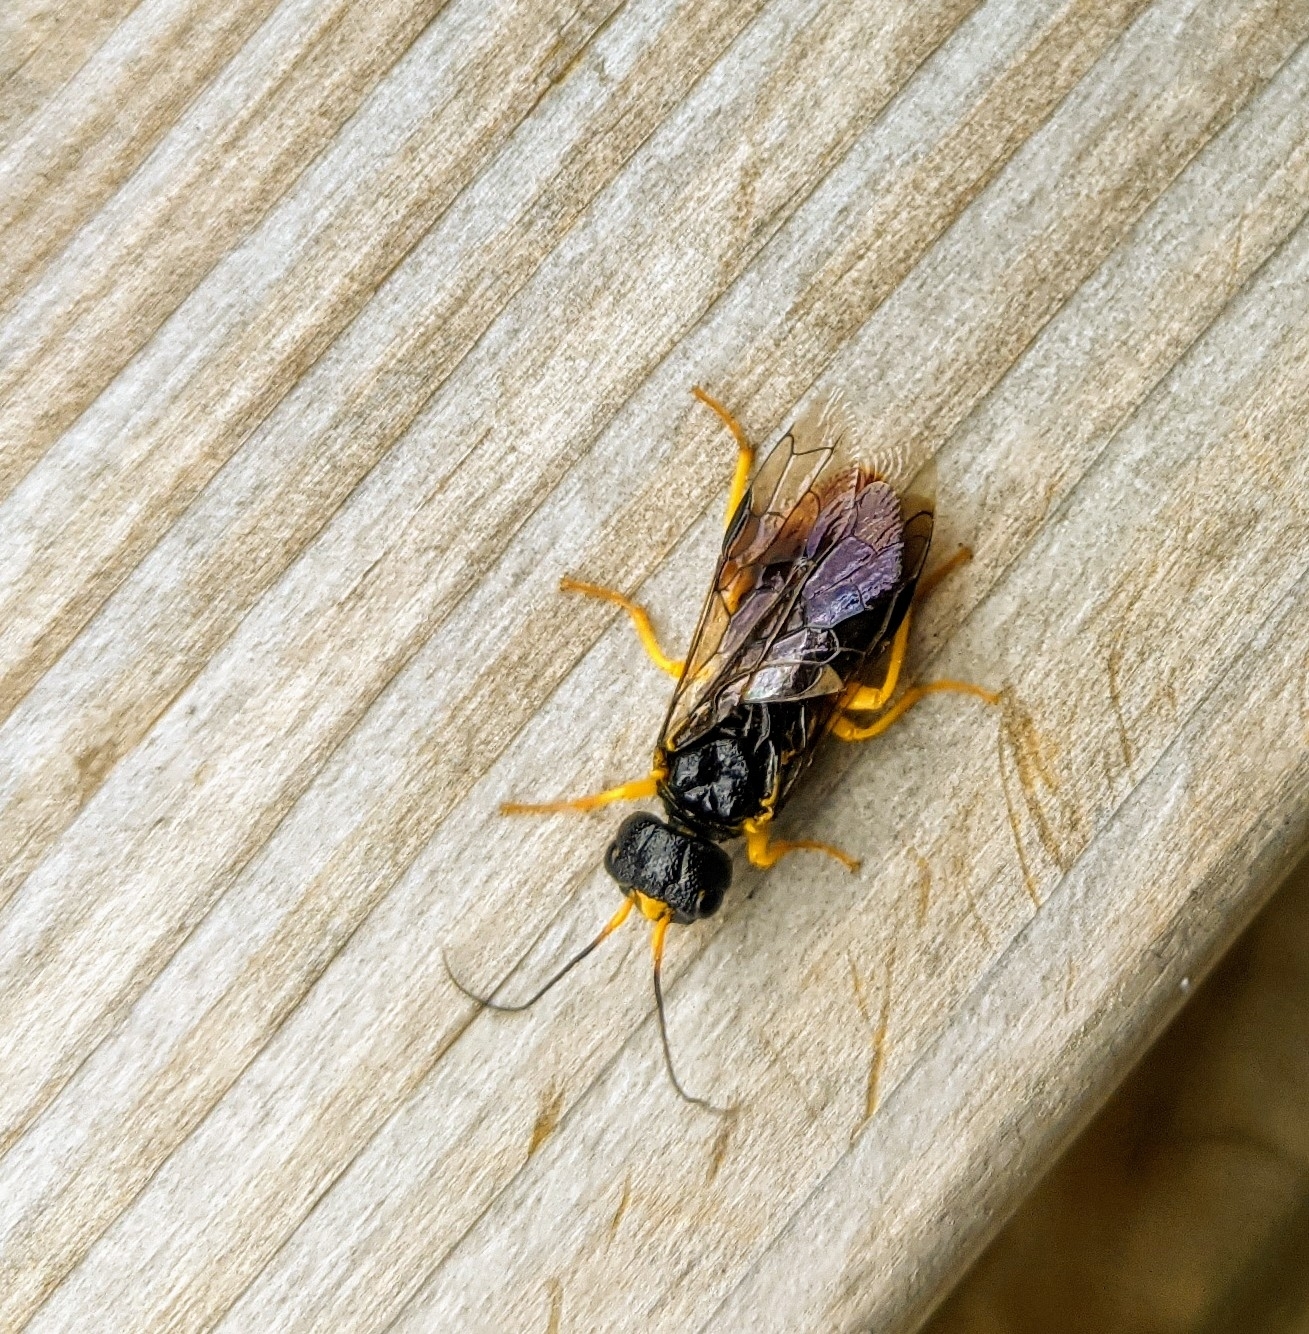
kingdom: Animalia
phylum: Arthropoda
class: Insecta
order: Hymenoptera
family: Pamphiliidae
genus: Neurotoma
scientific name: Neurotoma saltuum
